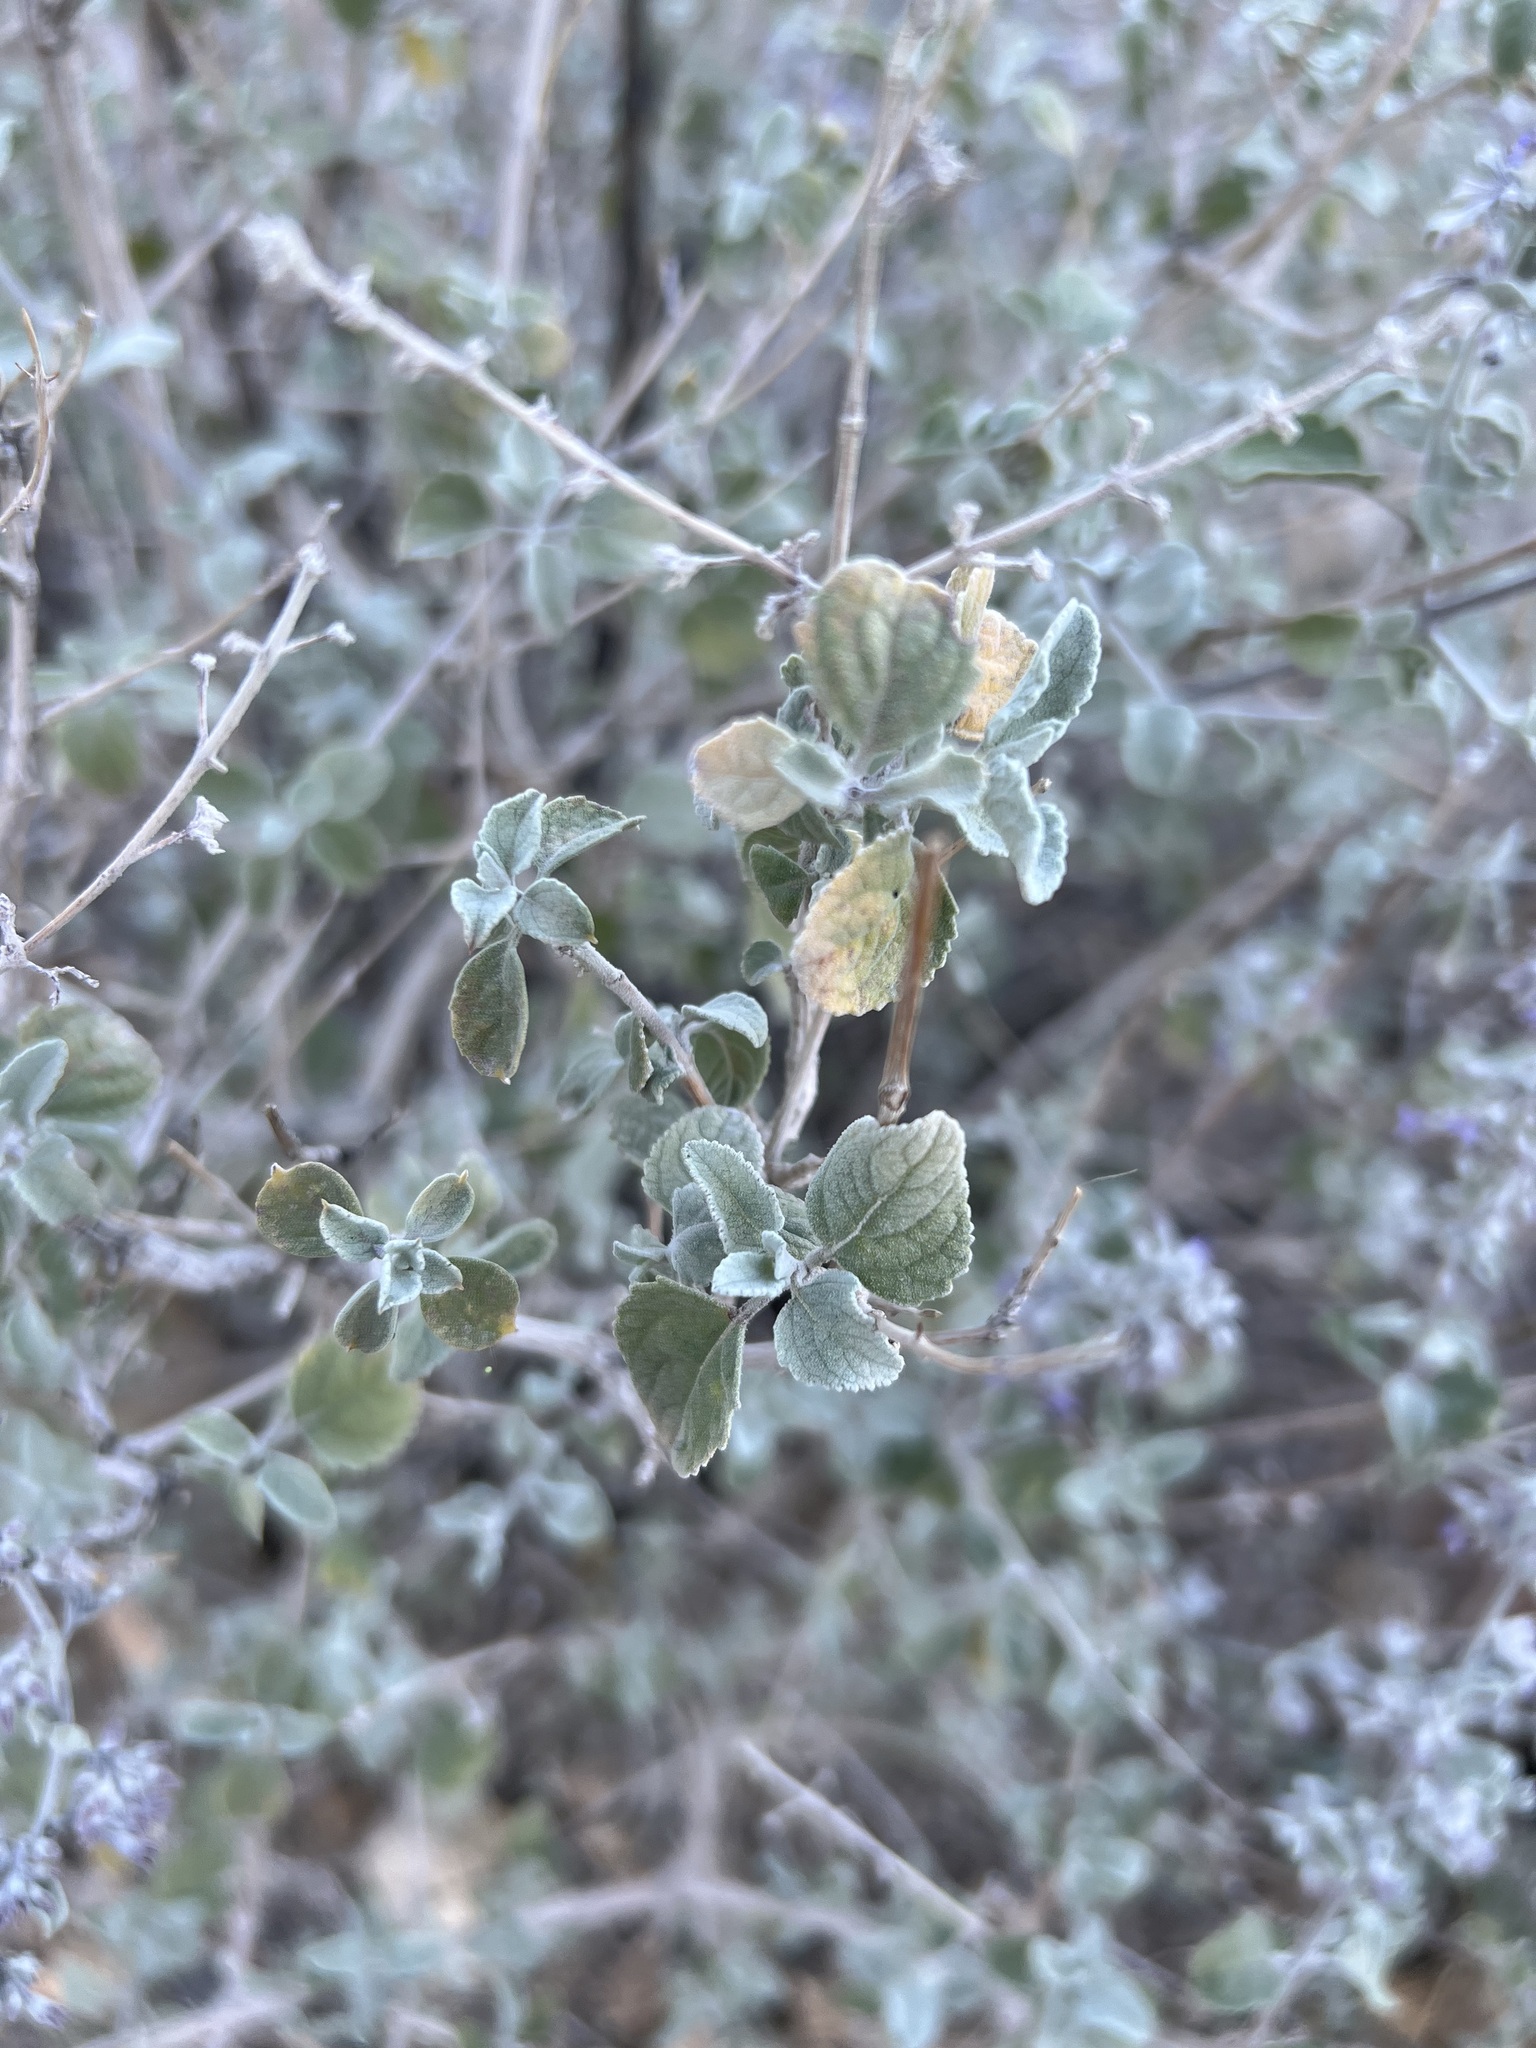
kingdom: Plantae
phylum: Tracheophyta
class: Magnoliopsida
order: Lamiales
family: Lamiaceae
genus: Condea
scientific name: Condea emoryi
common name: Chia
